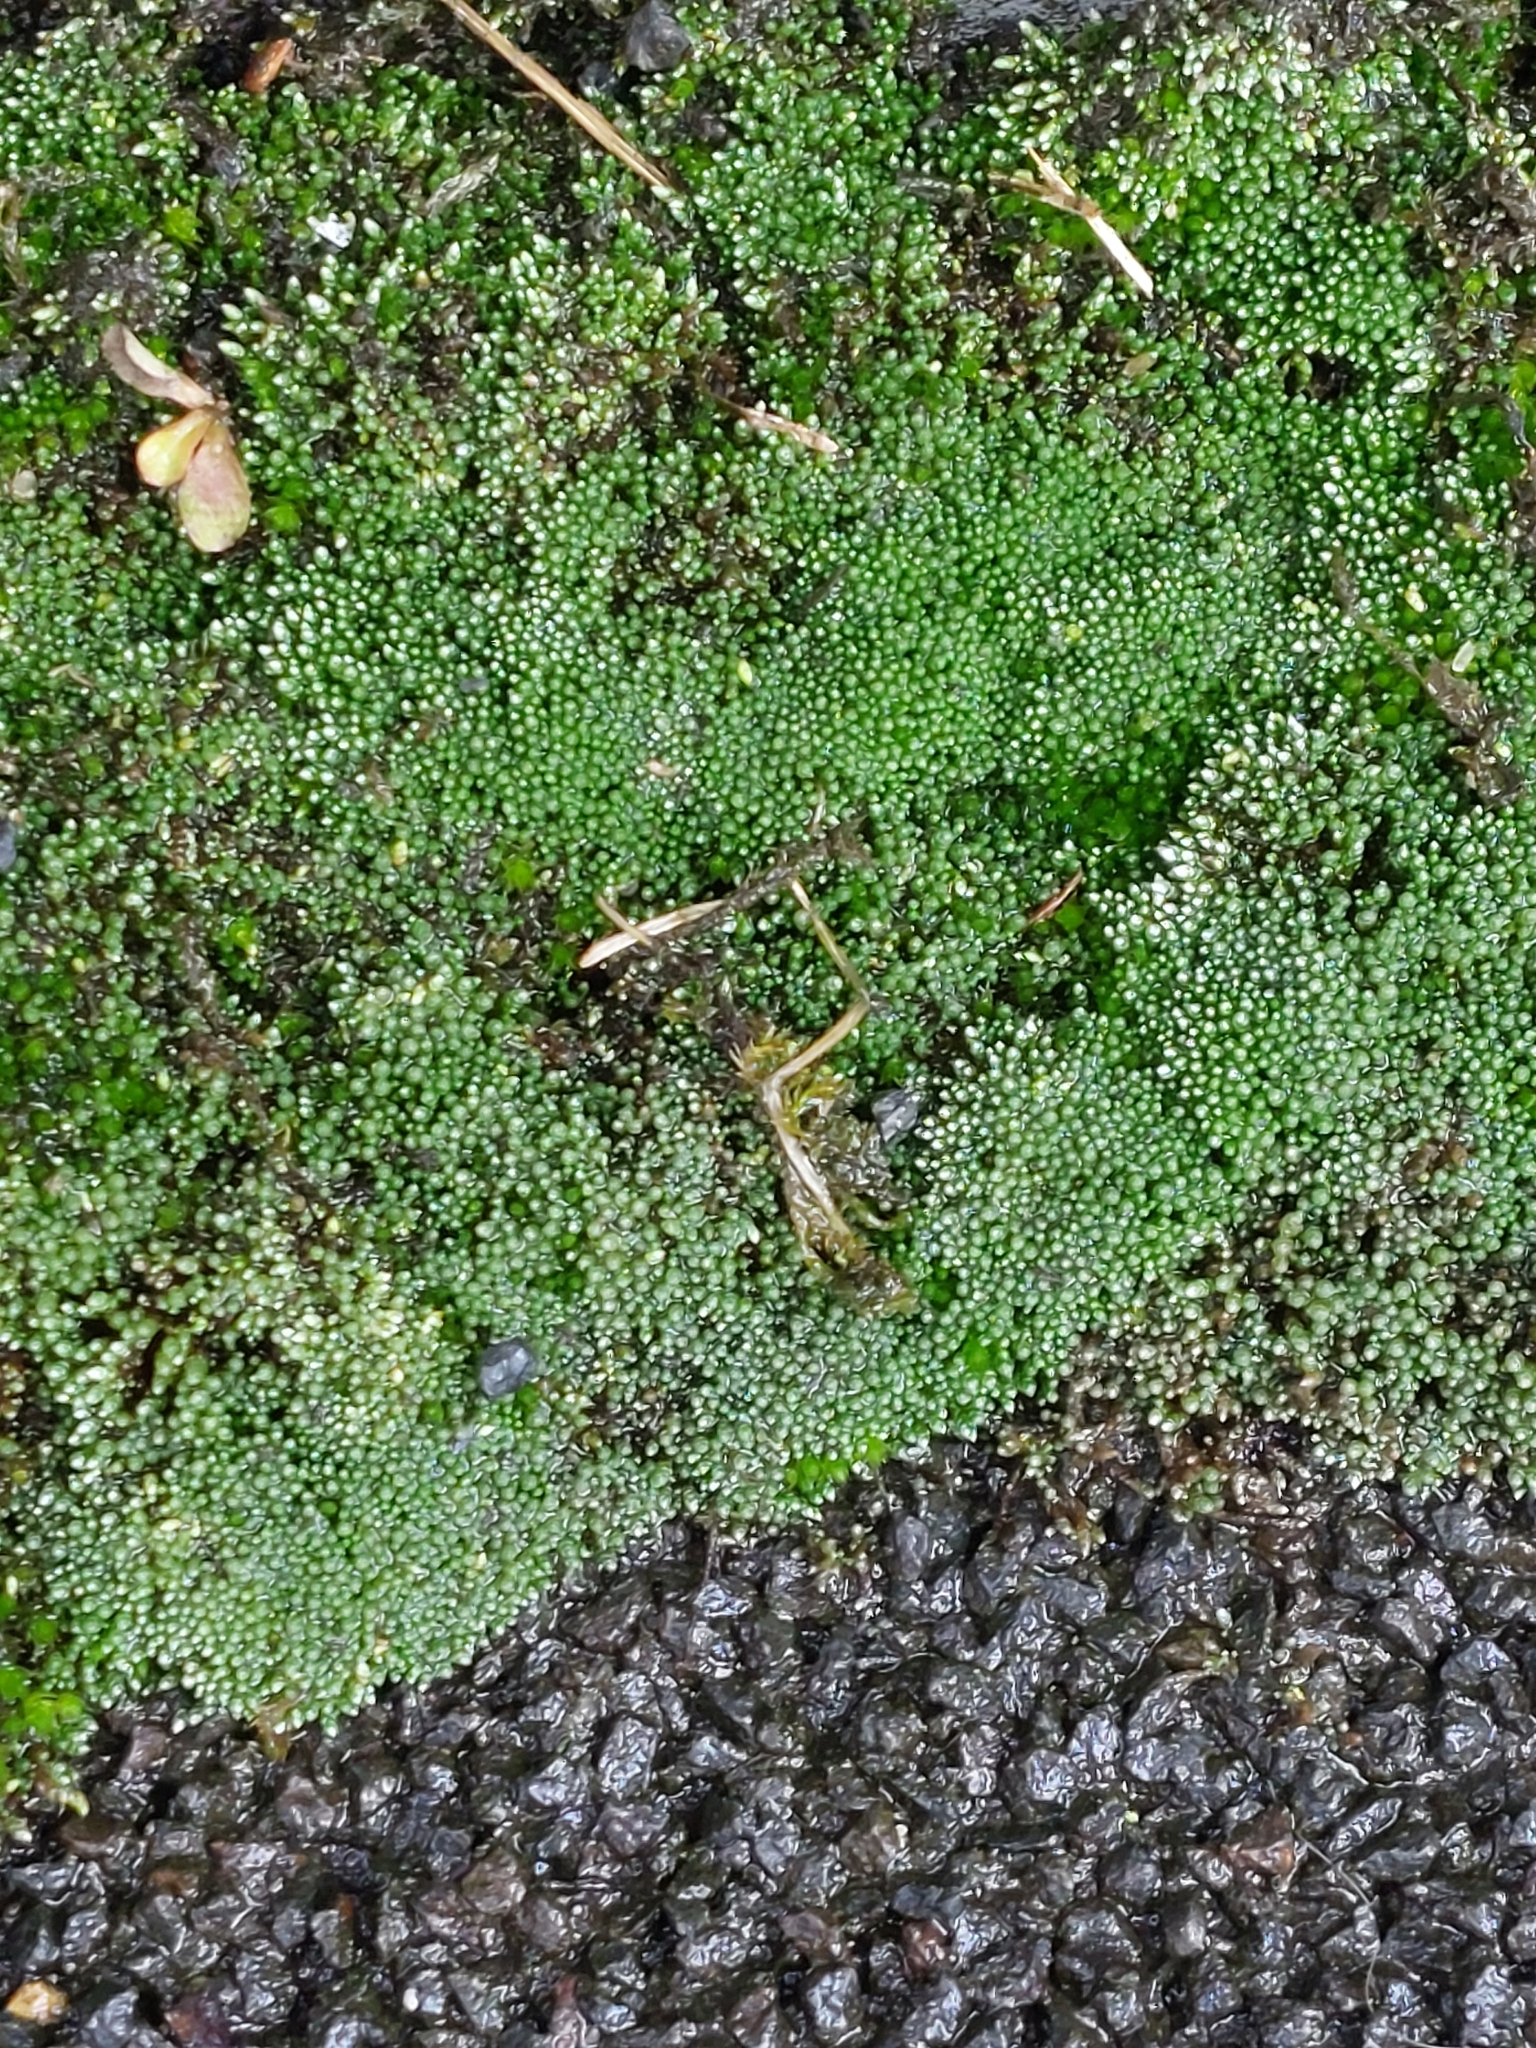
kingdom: Plantae
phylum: Bryophyta
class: Bryopsida
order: Bryales
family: Bryaceae
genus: Bryum
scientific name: Bryum argenteum
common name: Silver-moss
